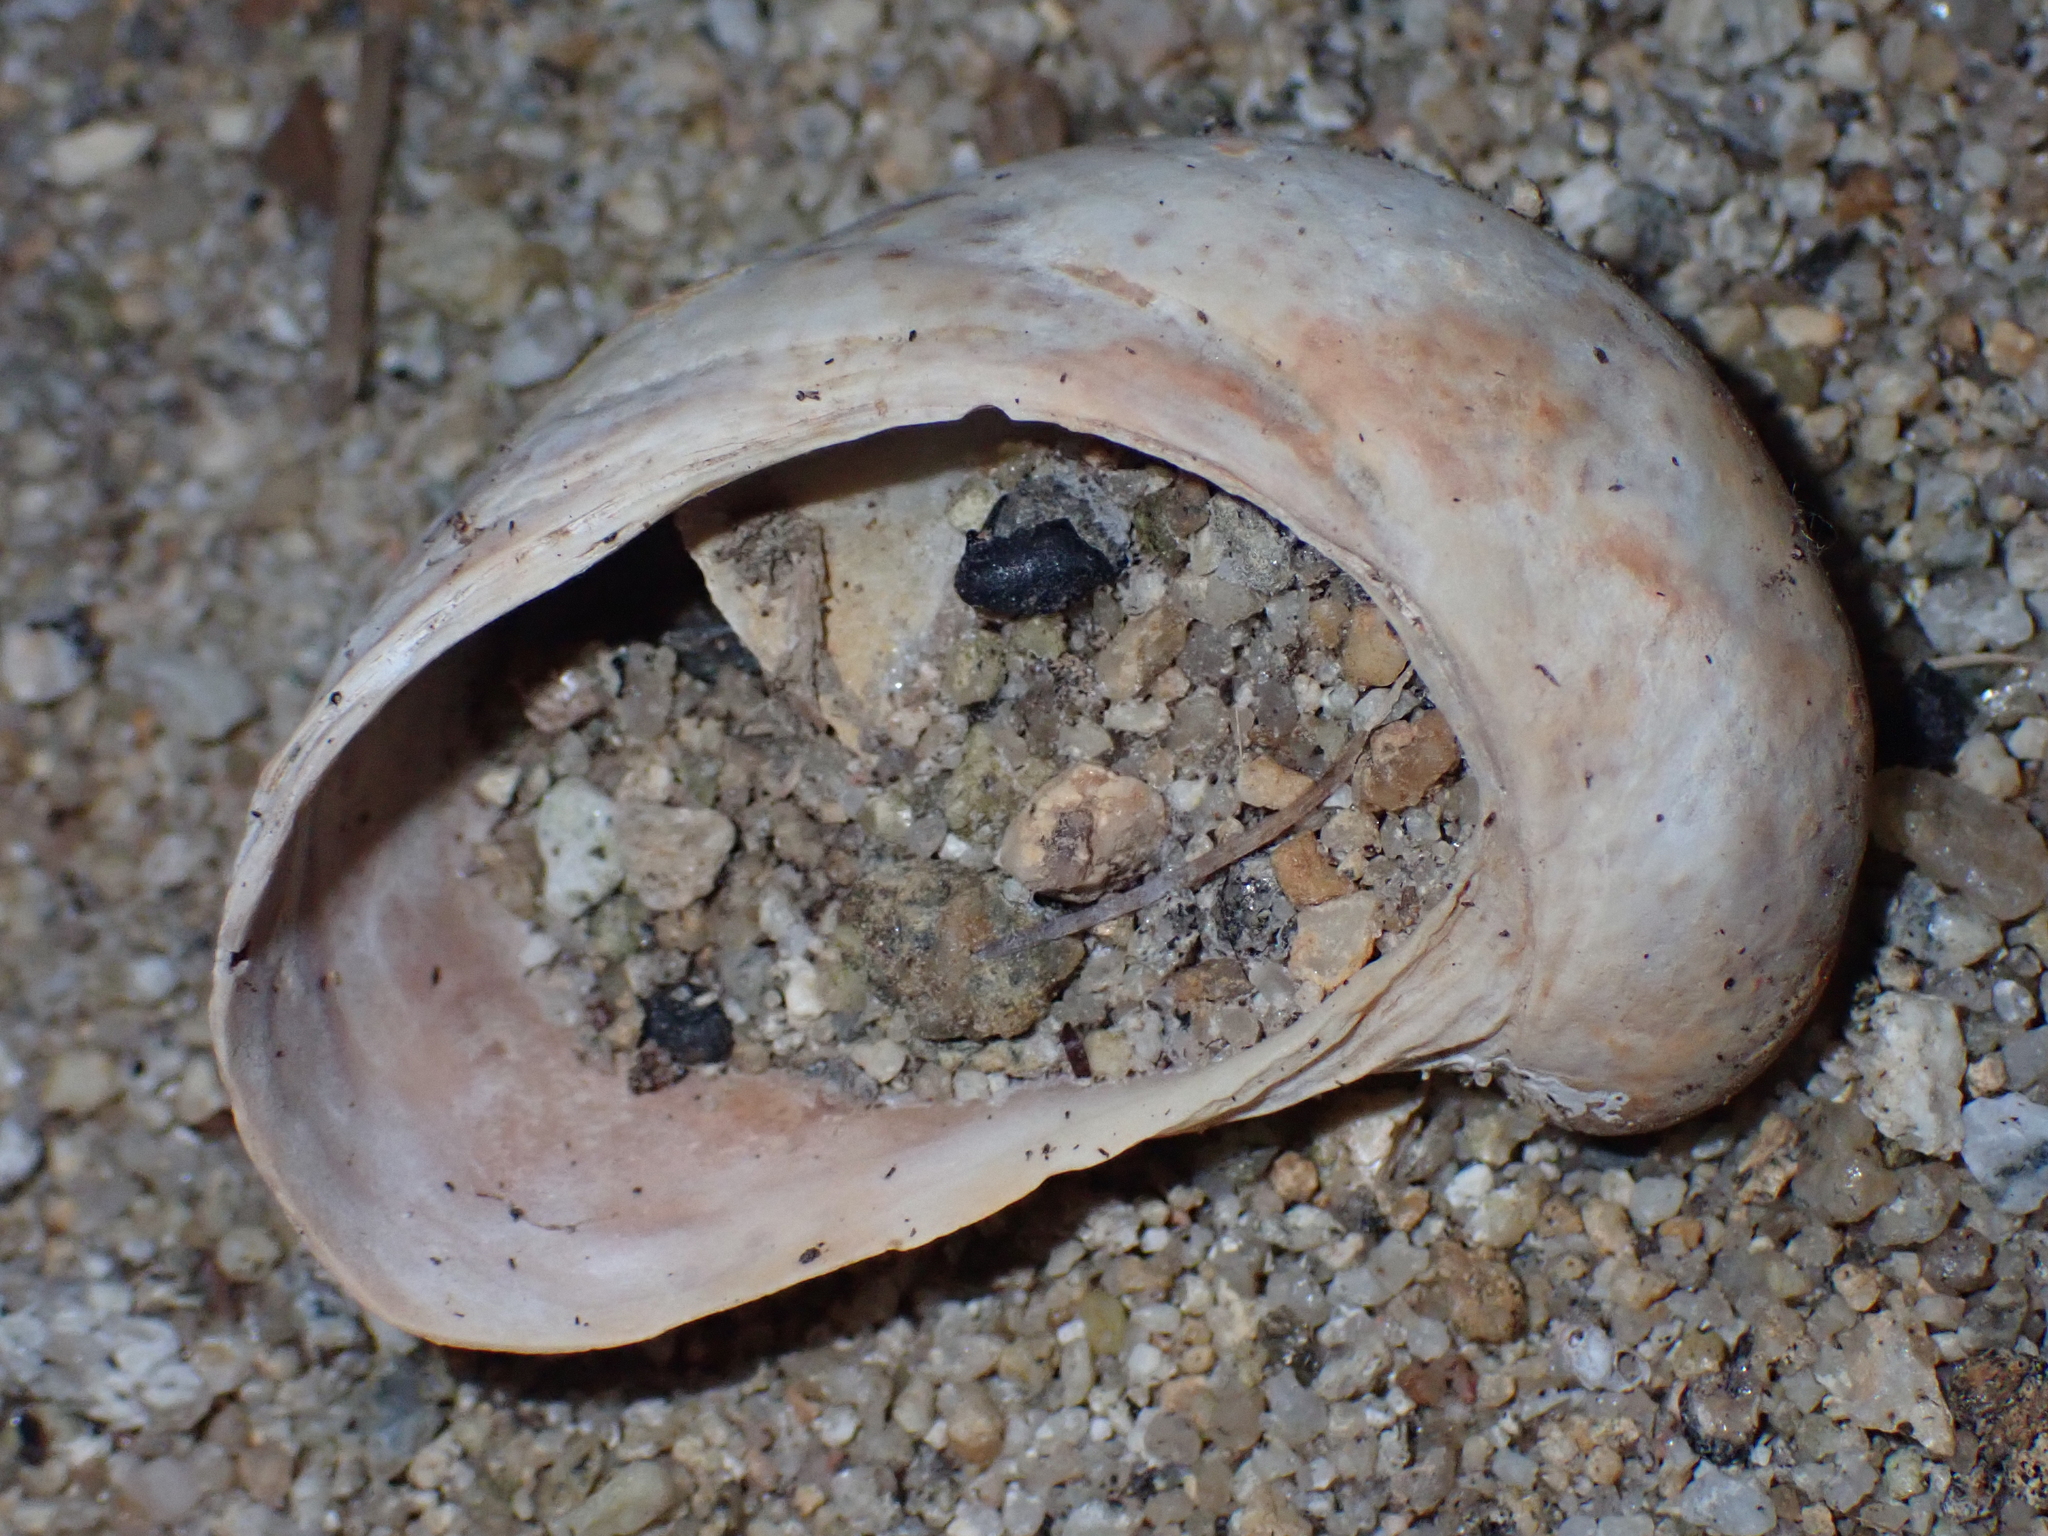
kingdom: Animalia
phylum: Mollusca
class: Gastropoda
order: Littorinimorpha
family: Calyptraeidae
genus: Crepidula
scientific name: Crepidula fornicata
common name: Slipper limpet
